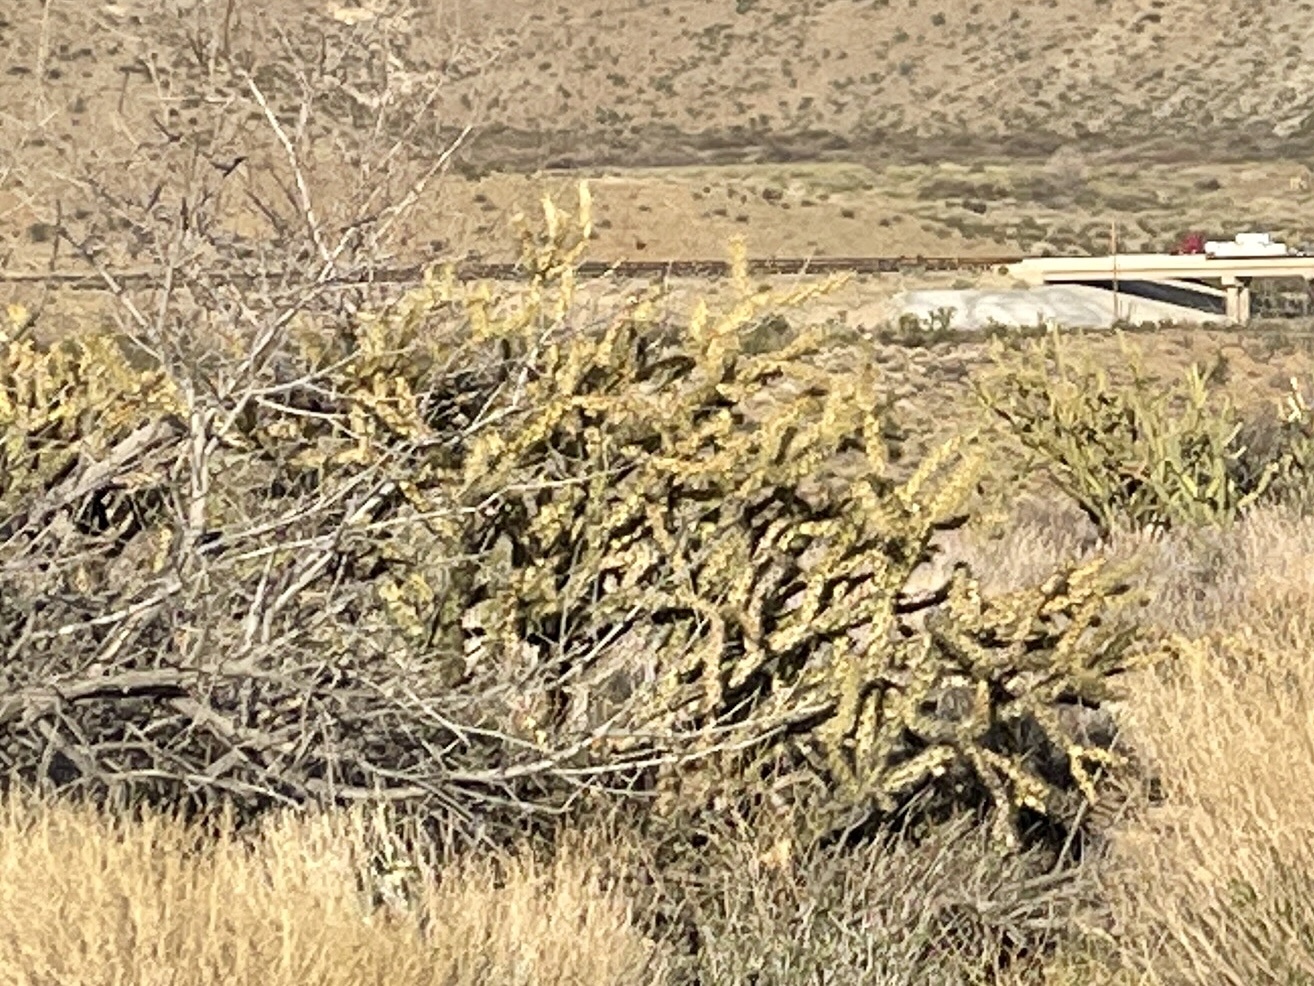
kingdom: Plantae
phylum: Tracheophyta
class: Magnoliopsida
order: Caryophyllales
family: Cactaceae
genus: Cylindropuntia
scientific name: Cylindropuntia acanthocarpa
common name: Buckhorn cholla
